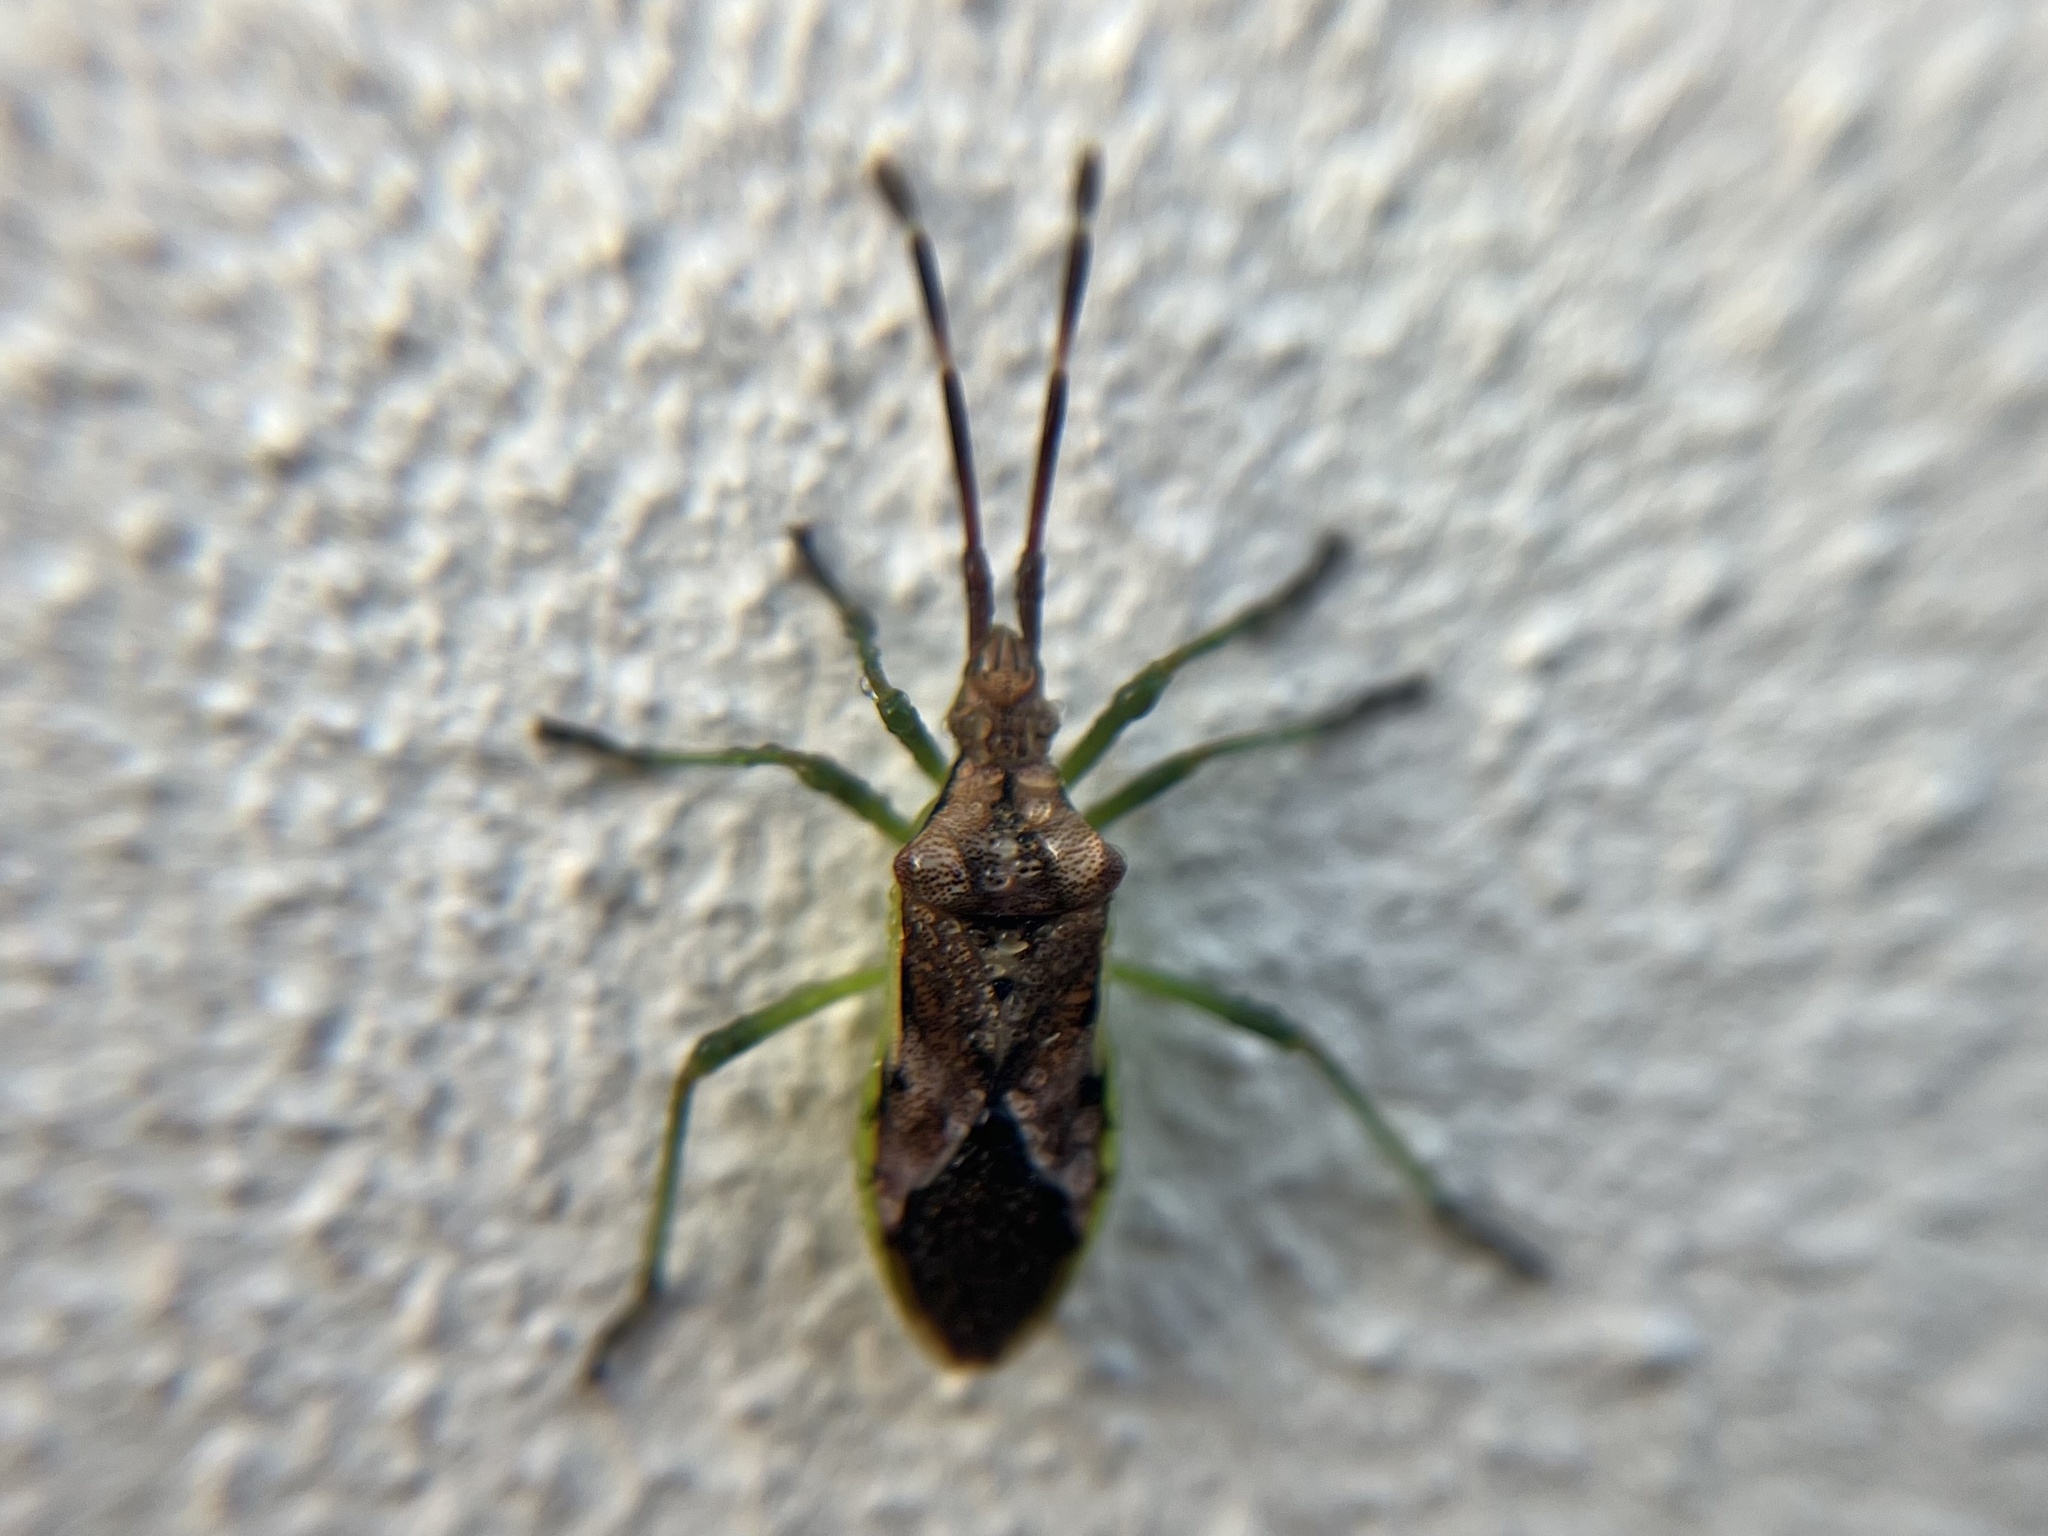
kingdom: Animalia
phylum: Arthropoda
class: Insecta
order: Hemiptera
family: Coreidae
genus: Gonocerus
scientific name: Gonocerus juniperi
